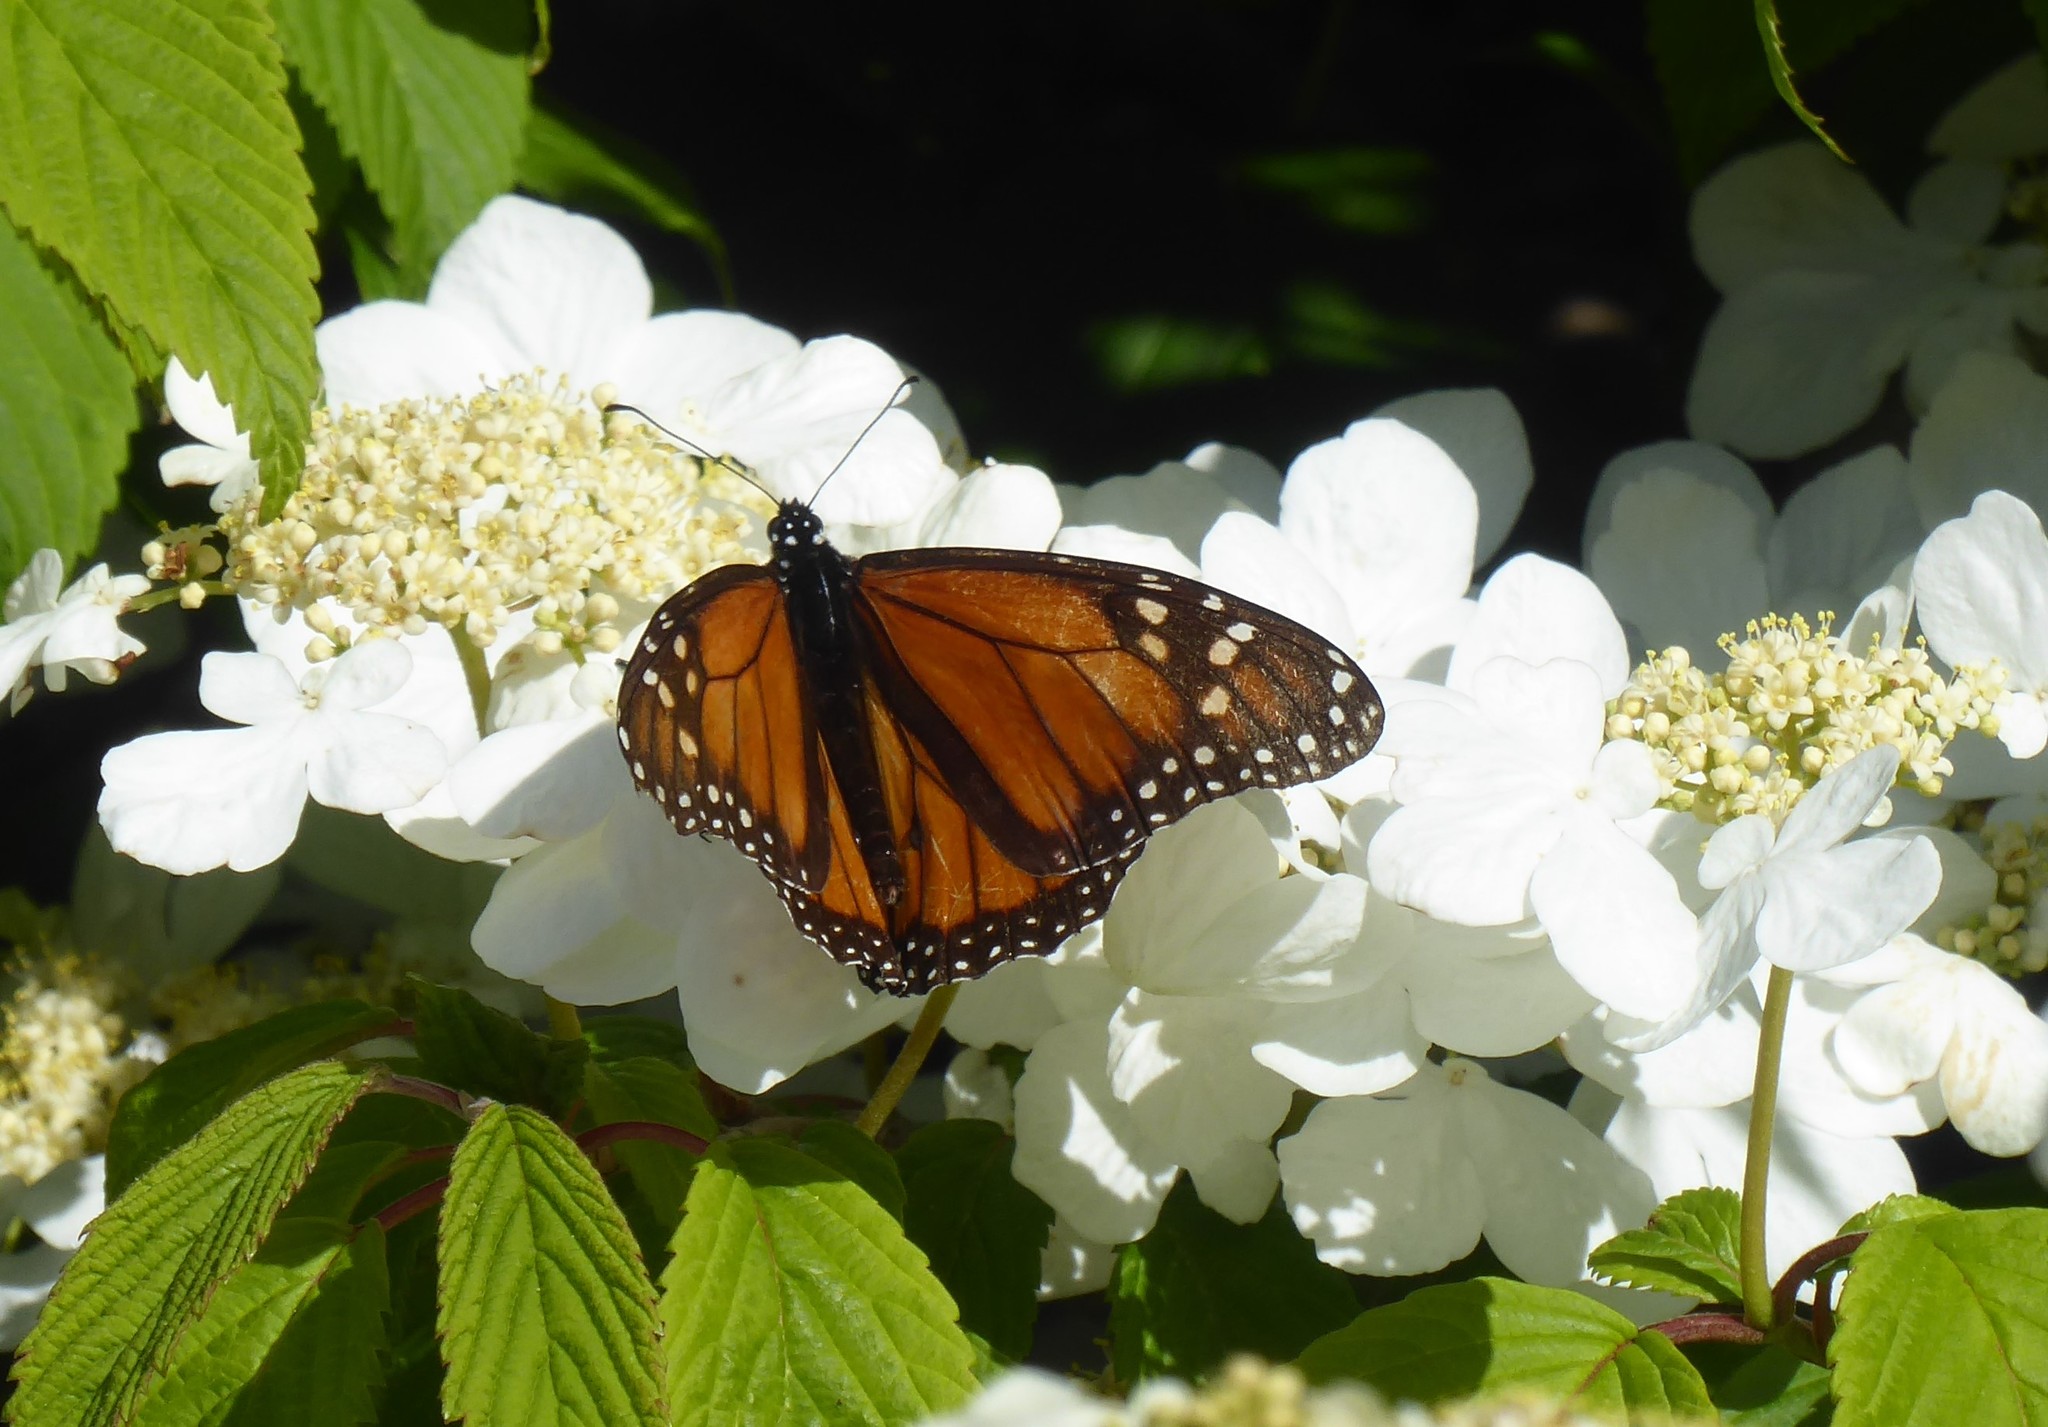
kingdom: Animalia
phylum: Arthropoda
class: Insecta
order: Lepidoptera
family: Nymphalidae
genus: Danaus
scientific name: Danaus plexippus
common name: Monarch
